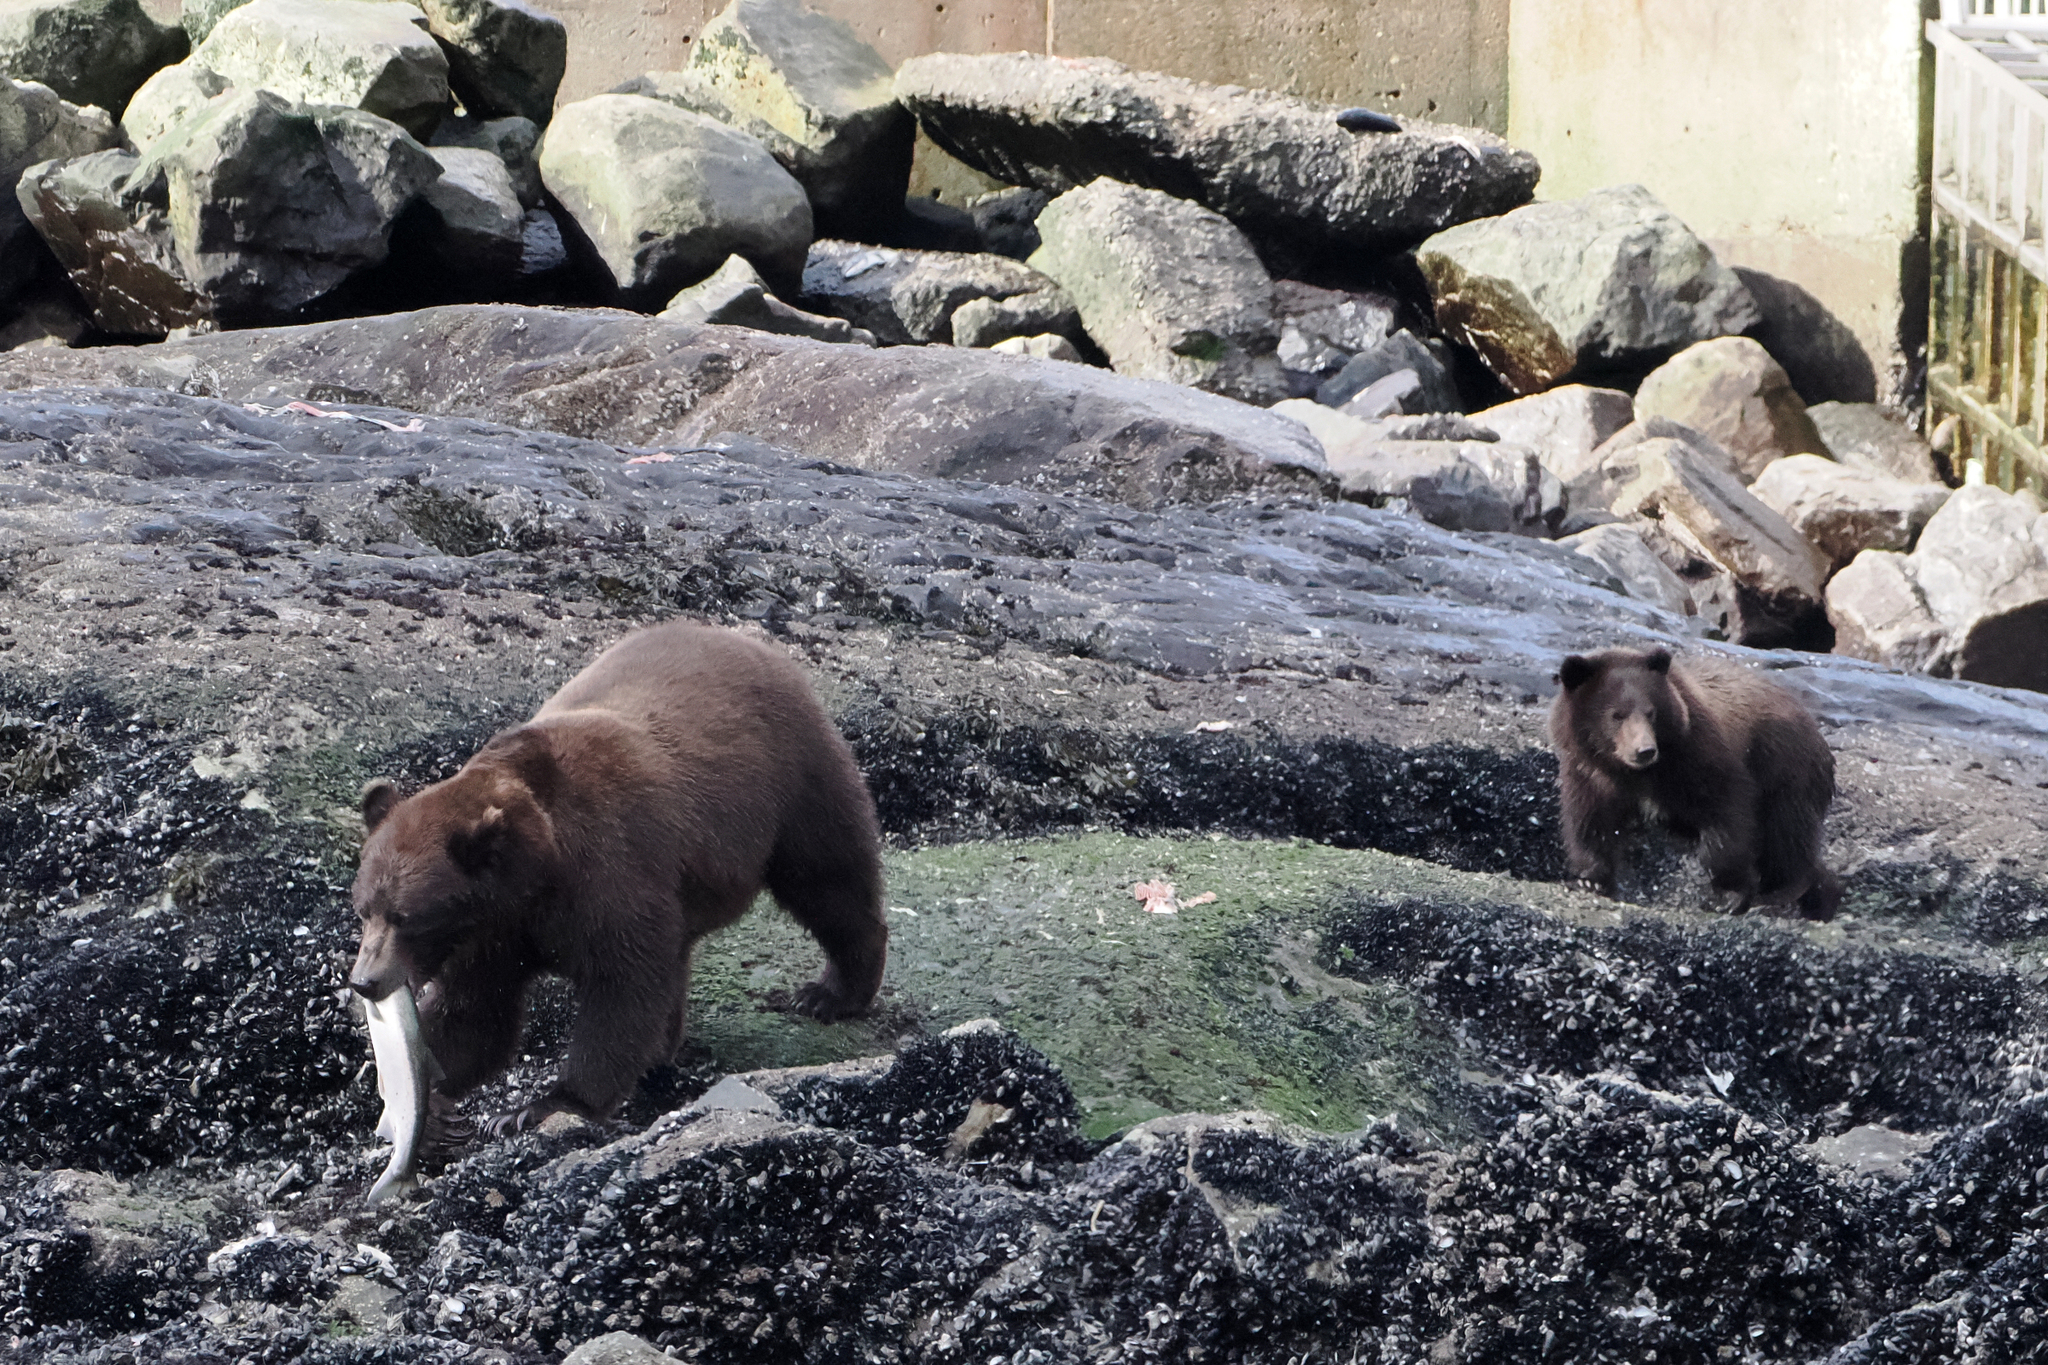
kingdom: Animalia
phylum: Chordata
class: Mammalia
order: Carnivora
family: Ursidae
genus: Ursus
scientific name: Ursus arctos
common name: Brown bear
